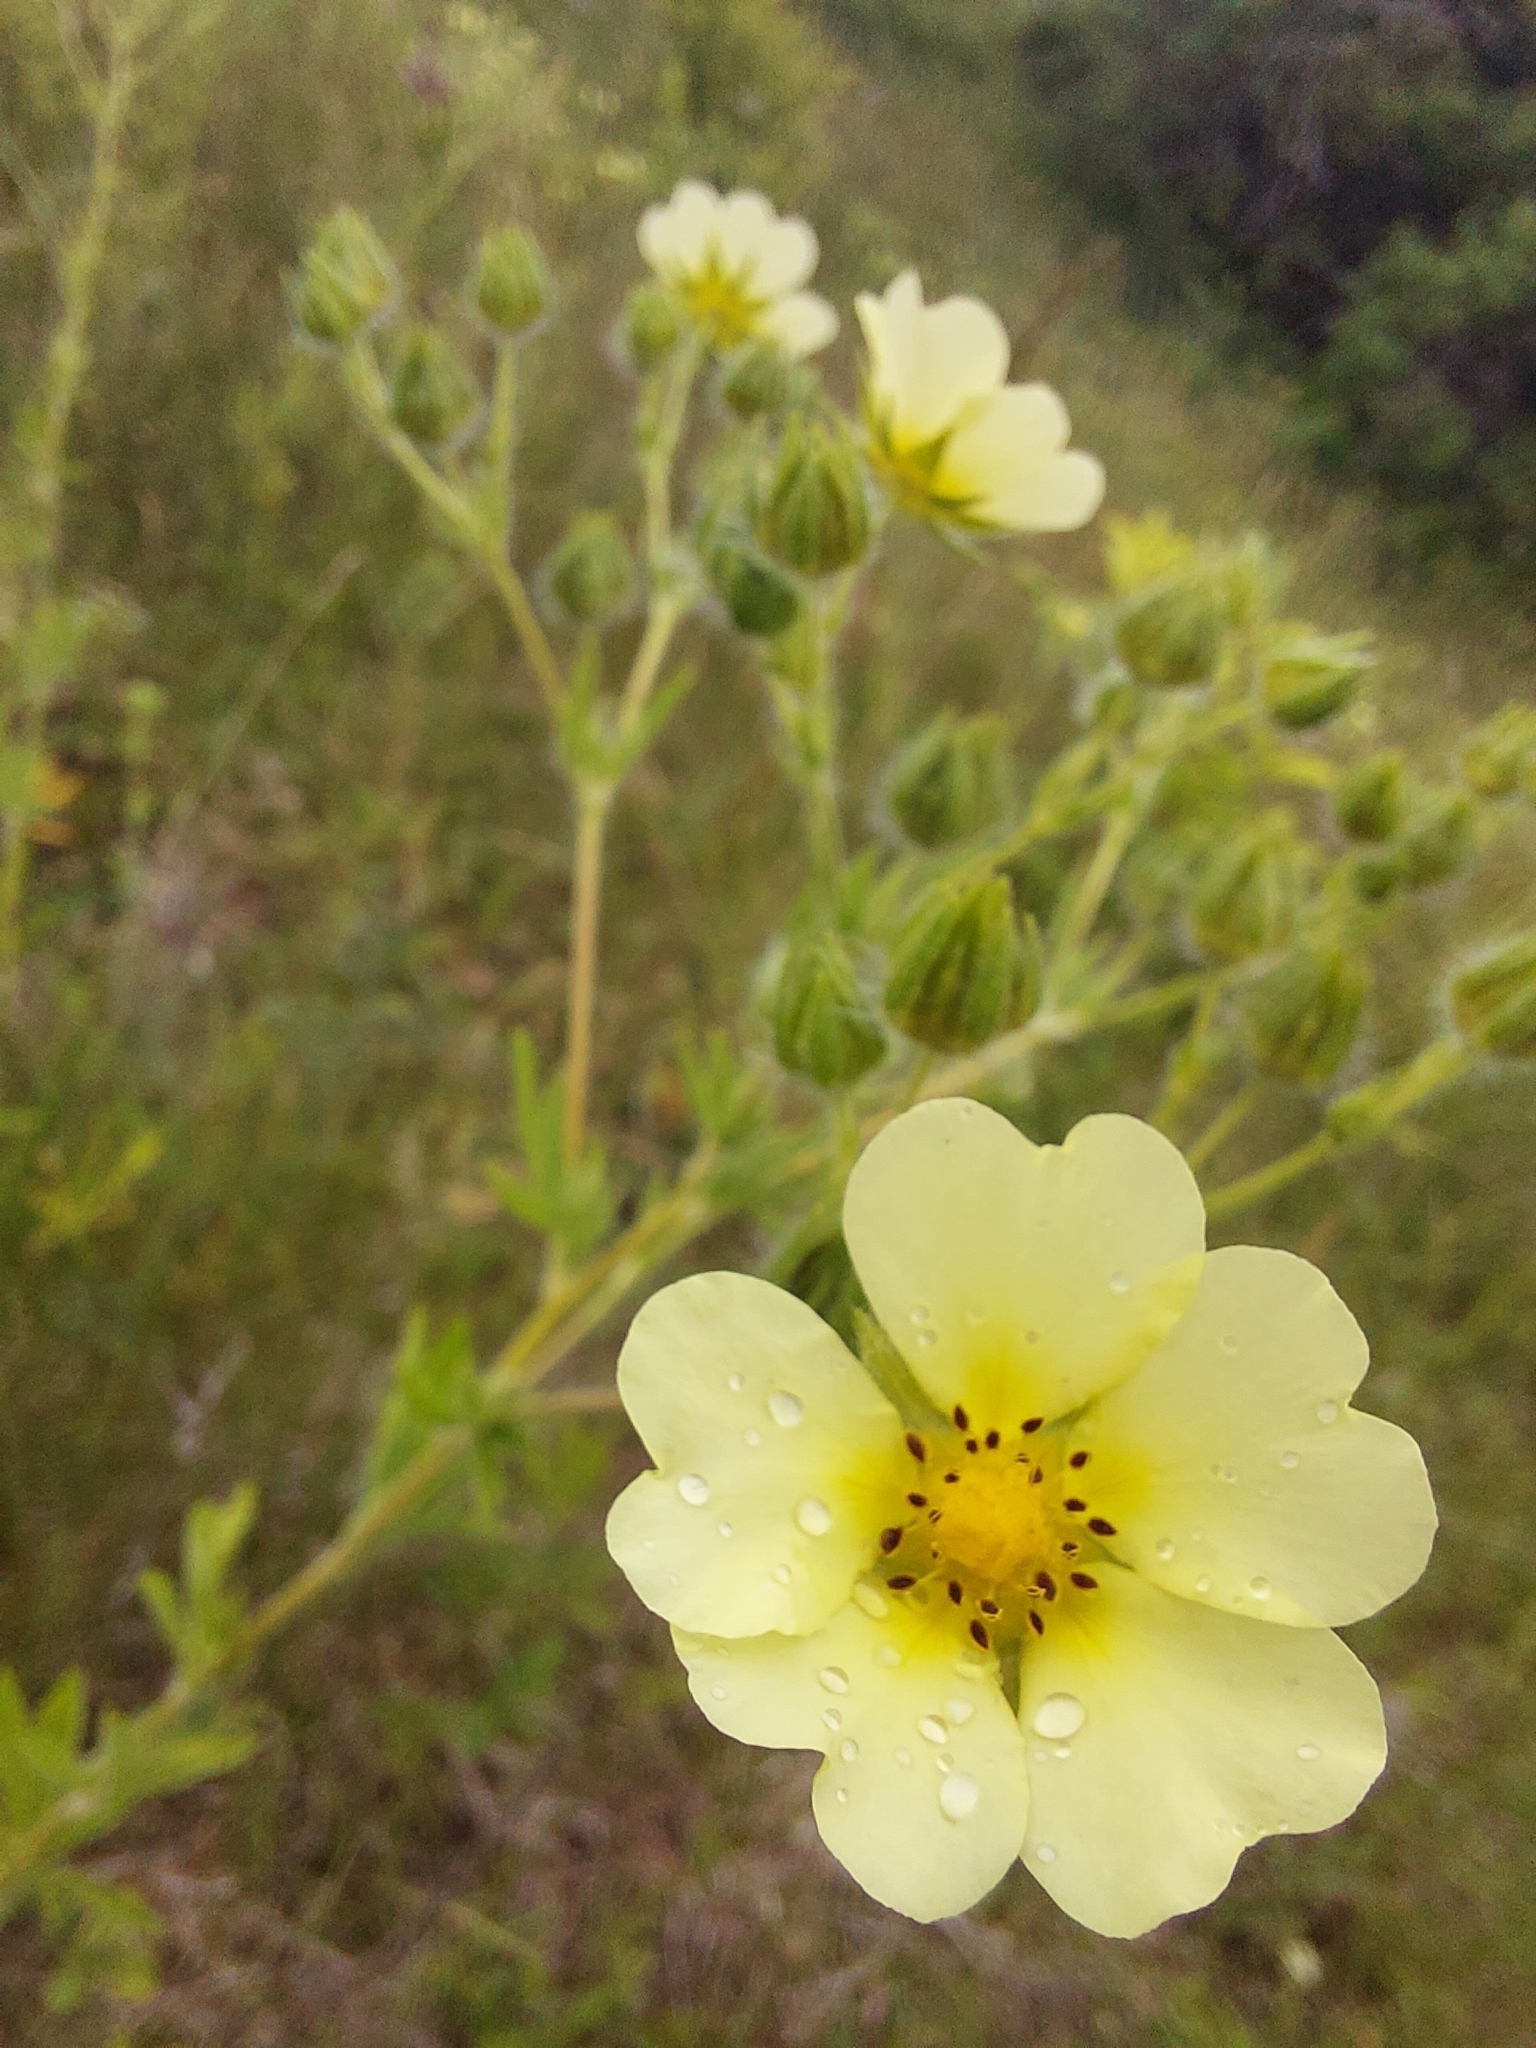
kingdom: Plantae
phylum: Tracheophyta
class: Magnoliopsida
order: Rosales
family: Rosaceae
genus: Potentilla
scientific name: Potentilla recta
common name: Sulphur cinquefoil
